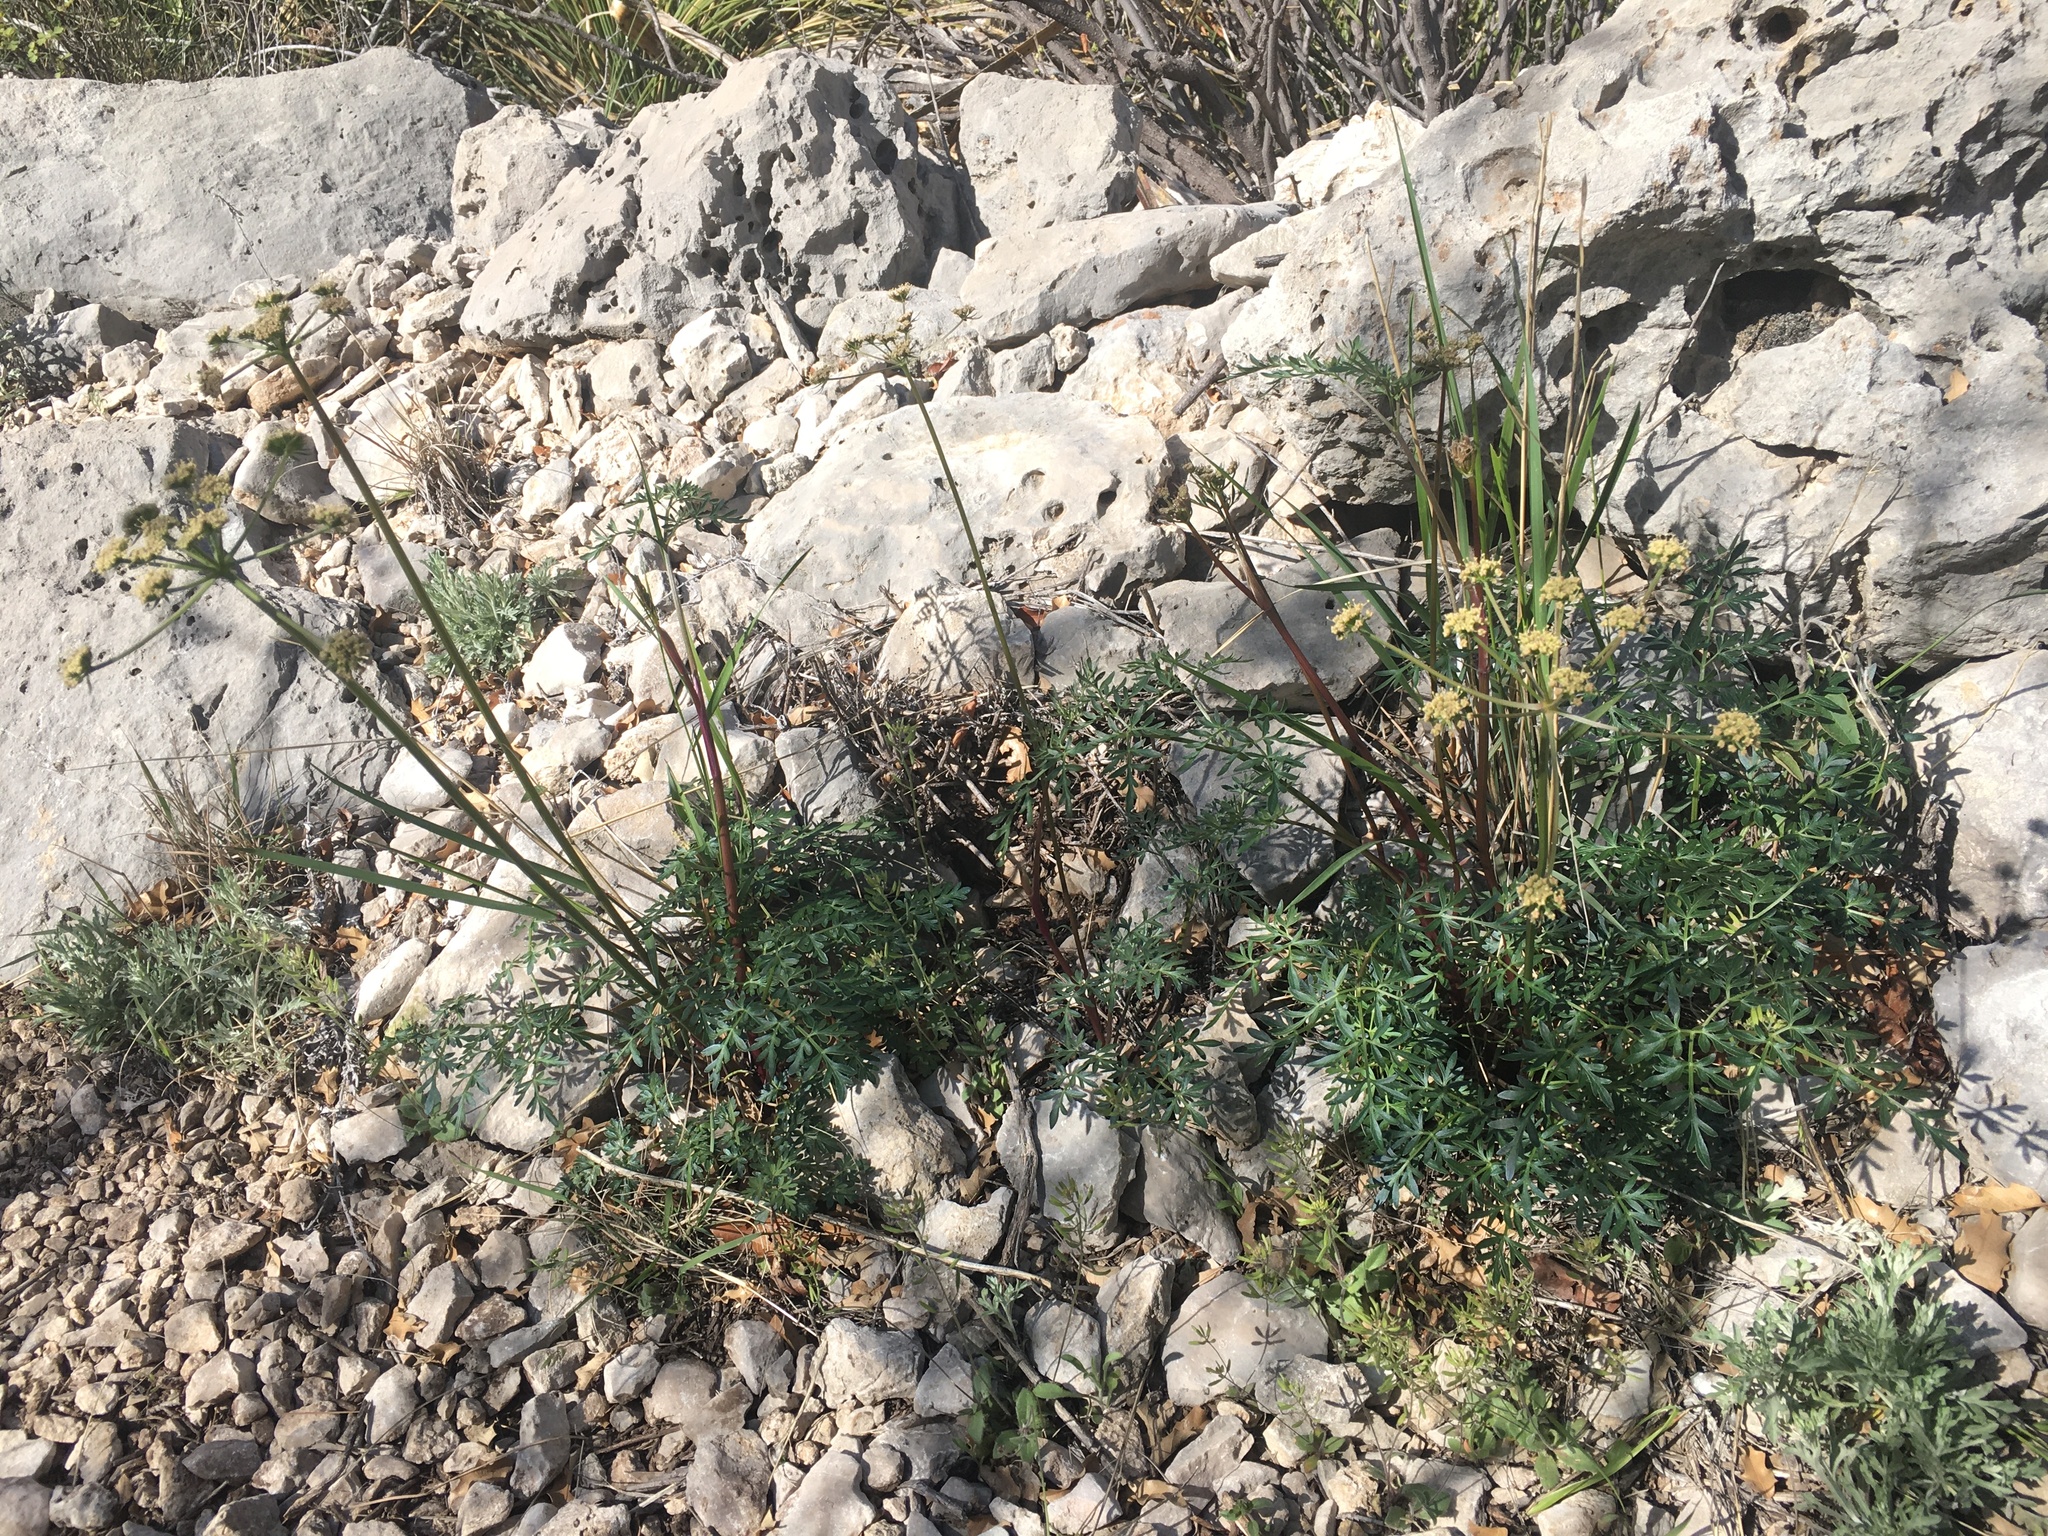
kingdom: Plantae
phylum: Tracheophyta
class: Magnoliopsida
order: Apiales
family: Apiaceae
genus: Pseudocymopterus
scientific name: Pseudocymopterus longiradiatus
